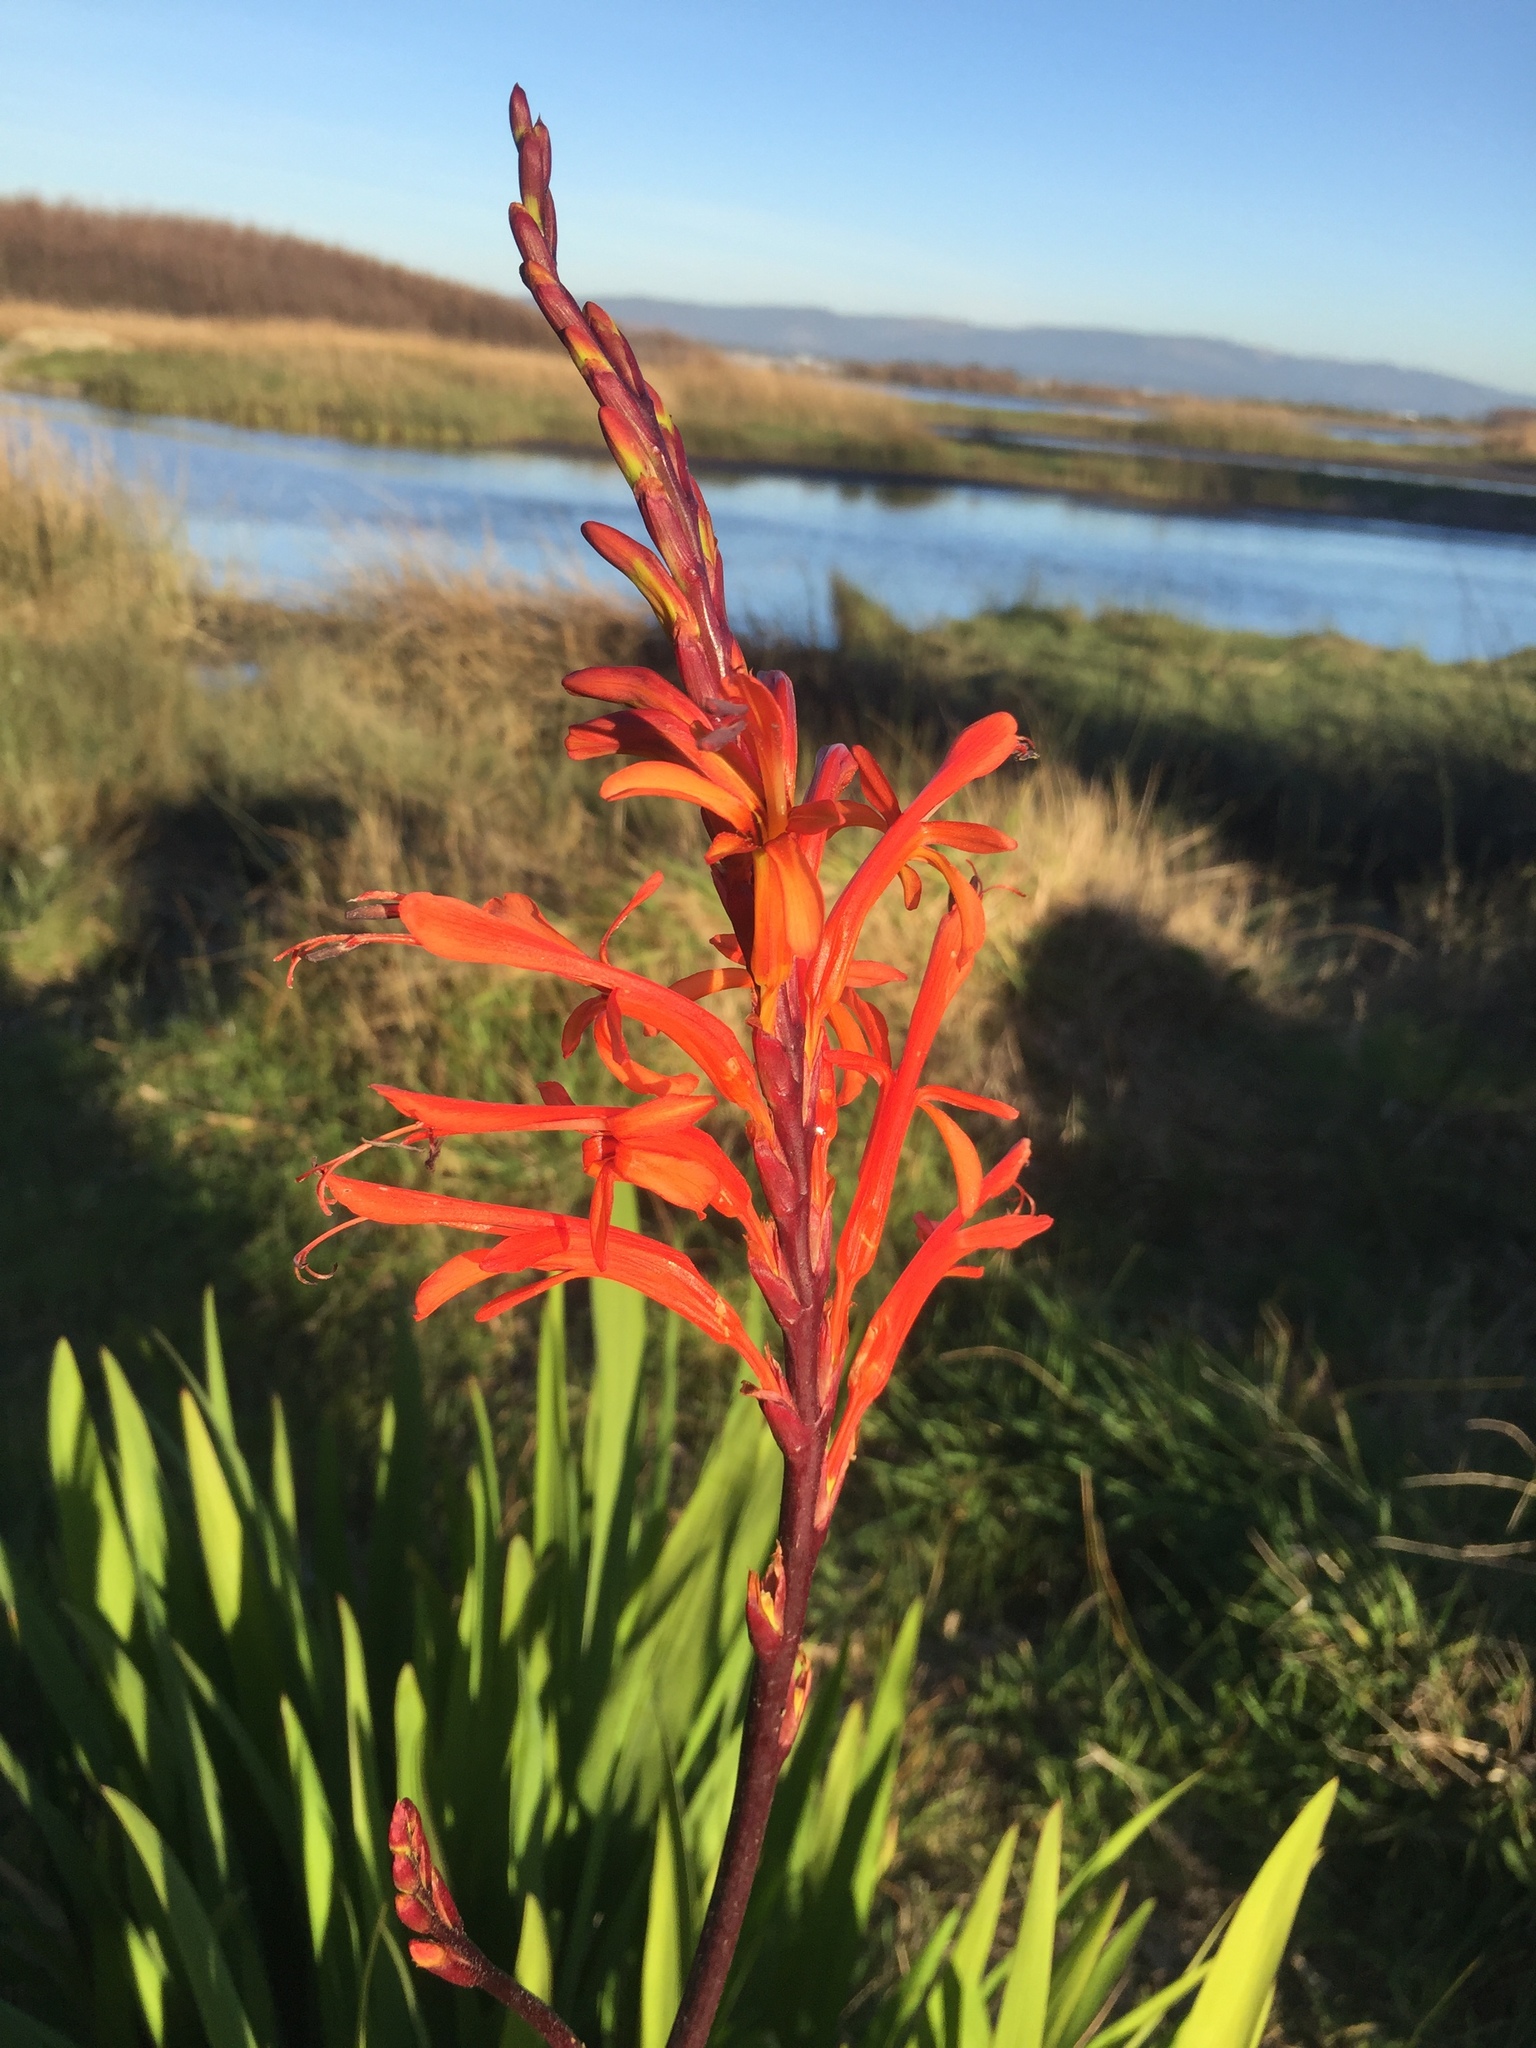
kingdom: Plantae
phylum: Tracheophyta
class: Liliopsida
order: Asparagales
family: Iridaceae
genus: Chasmanthe
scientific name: Chasmanthe floribunda
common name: African cornflag
